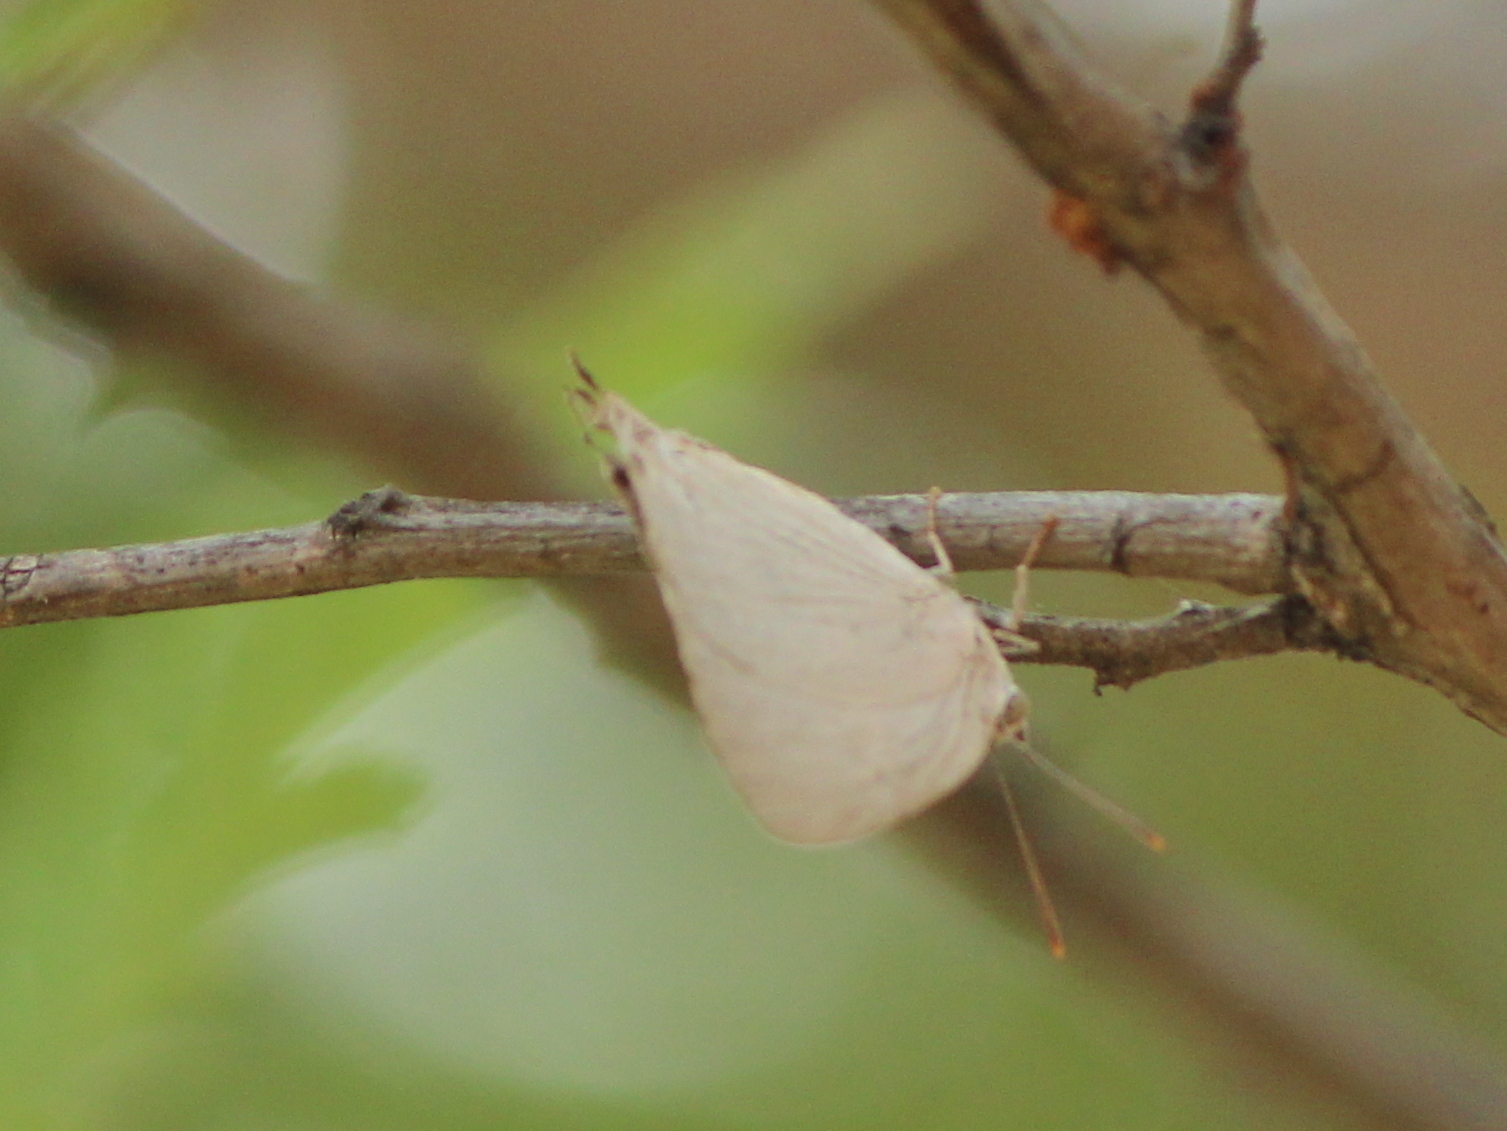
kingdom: Animalia
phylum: Arthropoda
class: Insecta
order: Lepidoptera
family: Lycaenidae
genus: Tajuria
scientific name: Tajuria jehana
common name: Plains blue royal
